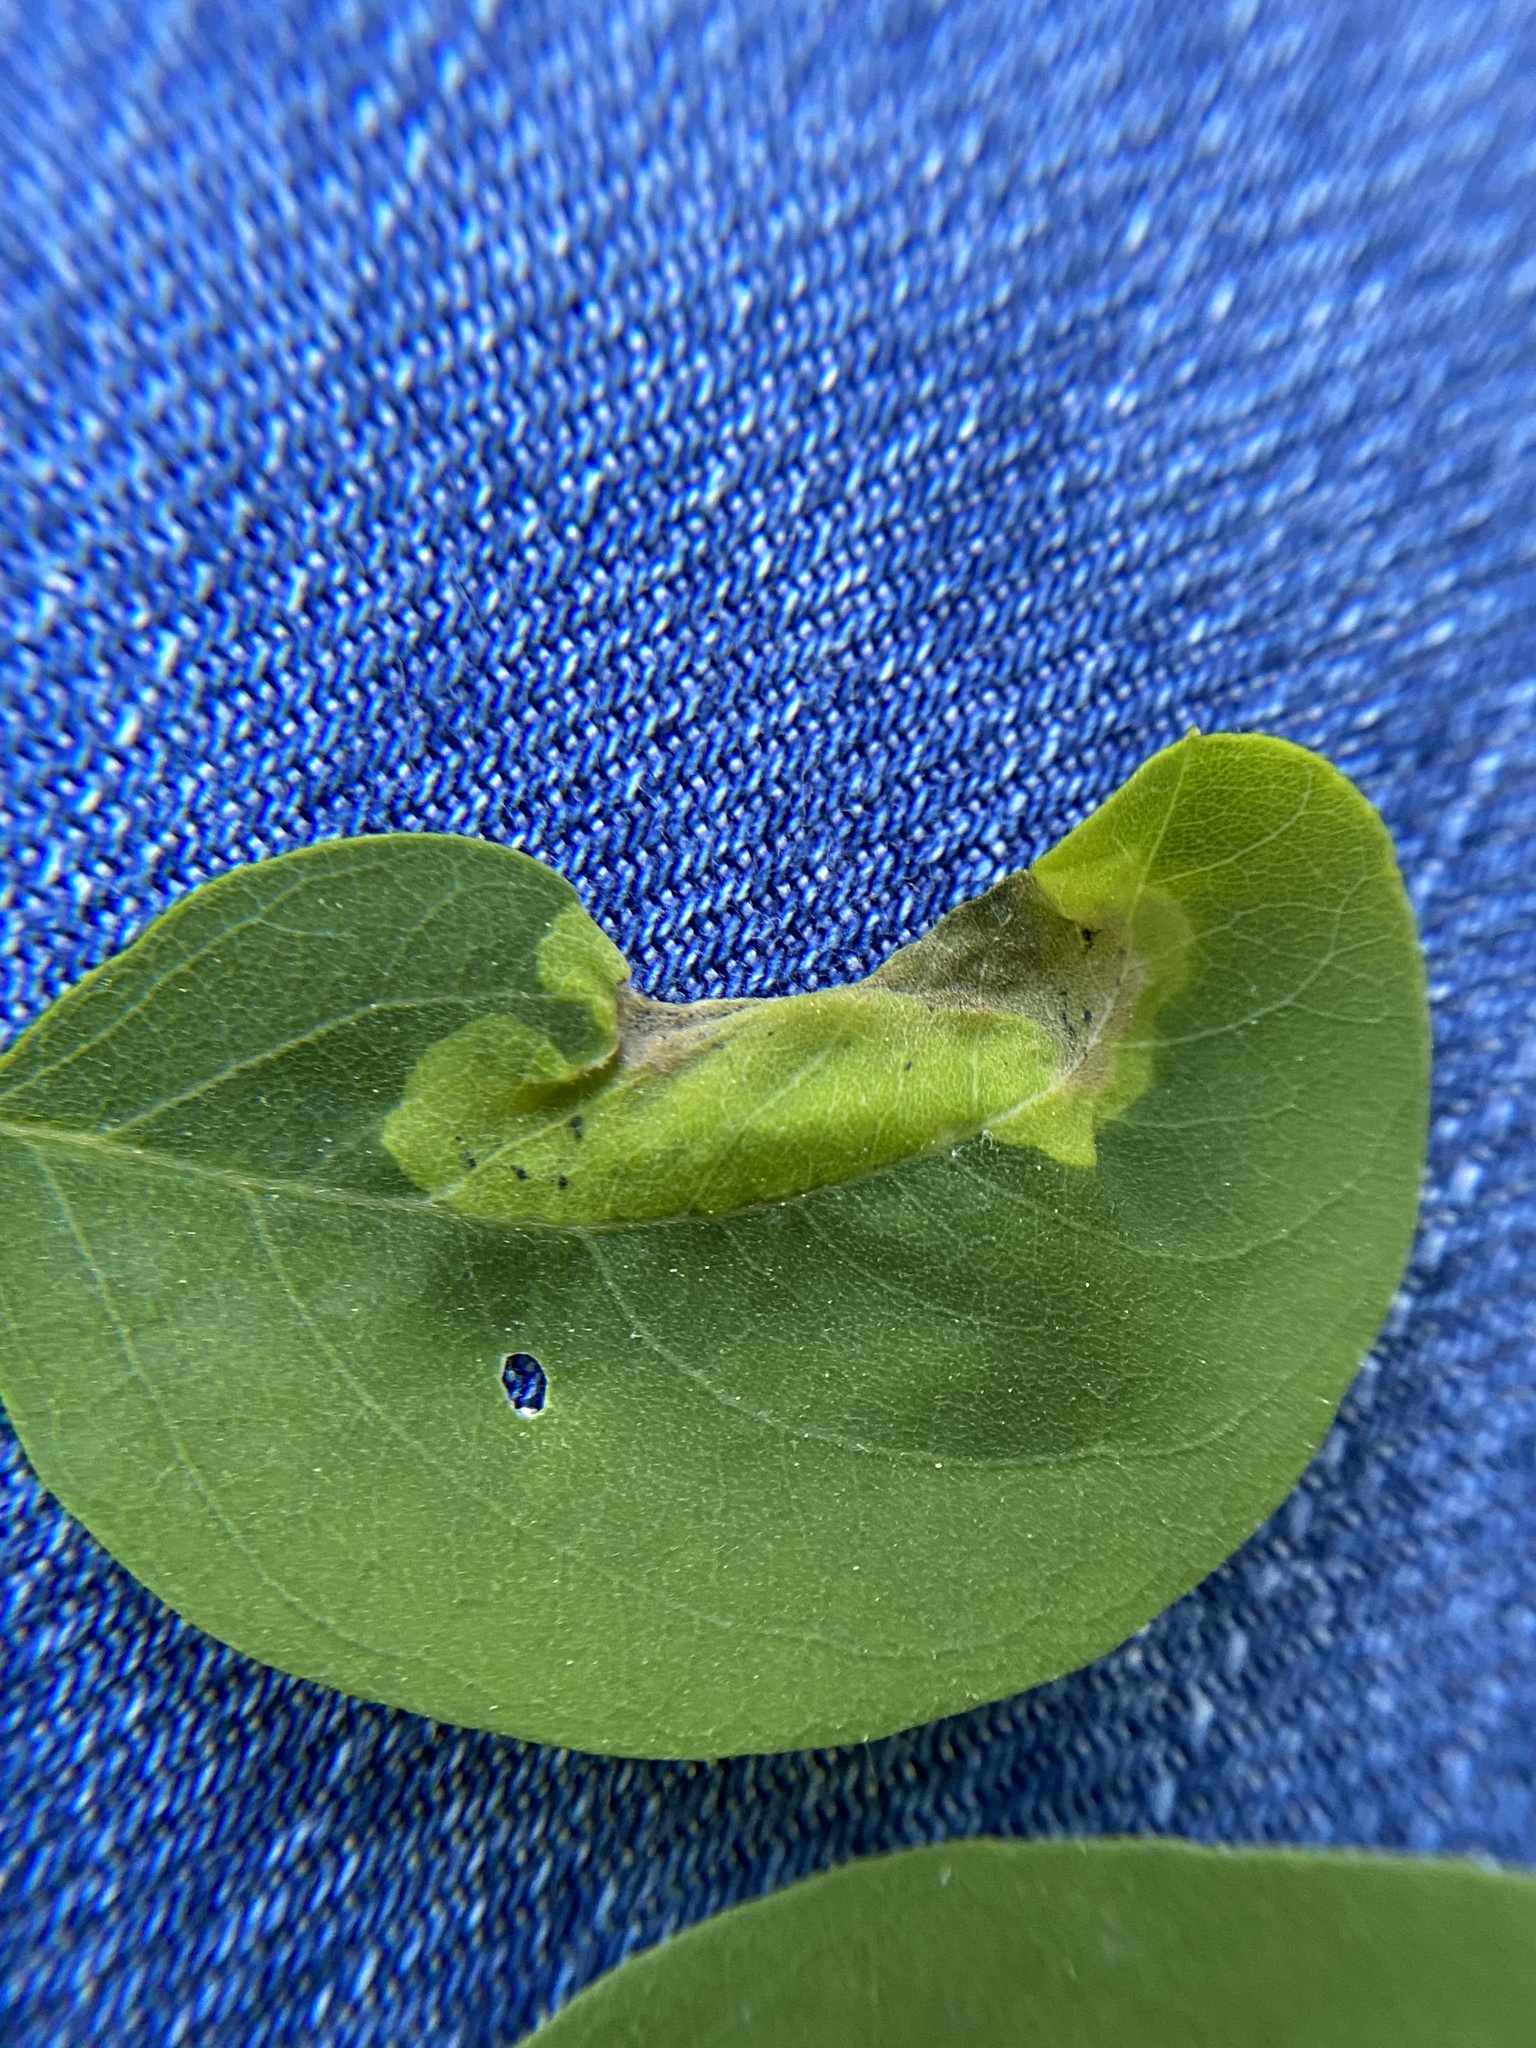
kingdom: Animalia
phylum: Arthropoda
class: Insecta
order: Diptera
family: Agromyzidae
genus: Agromyza
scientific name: Agromyza soka
